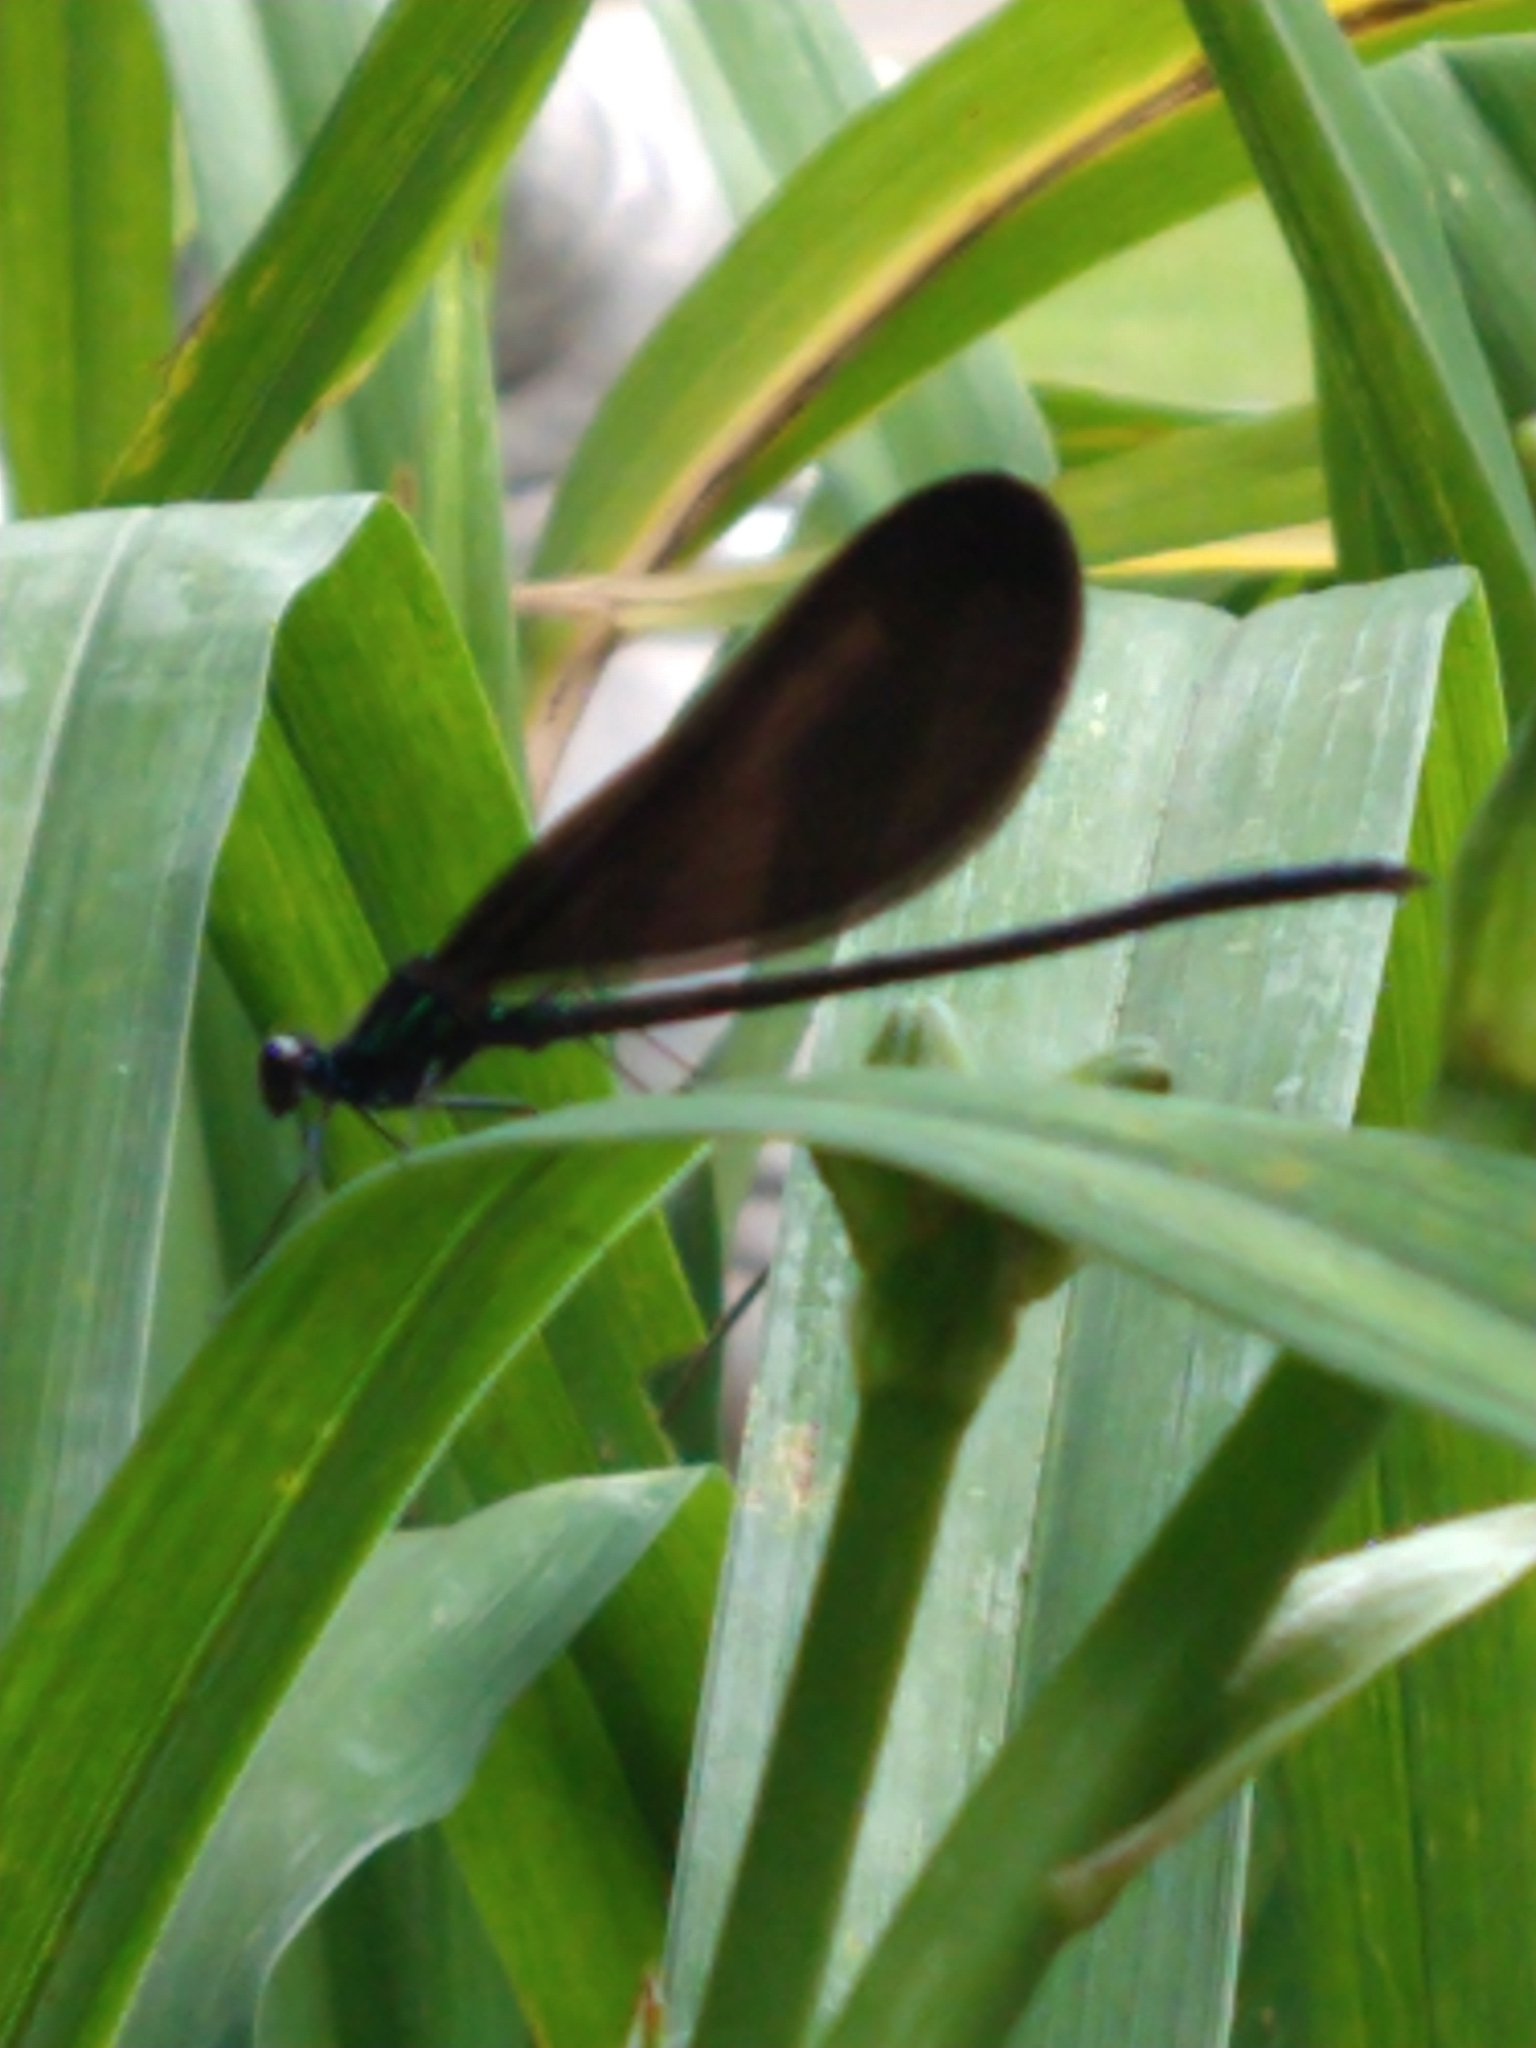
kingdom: Animalia
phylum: Arthropoda
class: Insecta
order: Odonata
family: Calopterygidae
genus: Calopteryx
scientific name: Calopteryx maculata
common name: Ebony jewelwing
